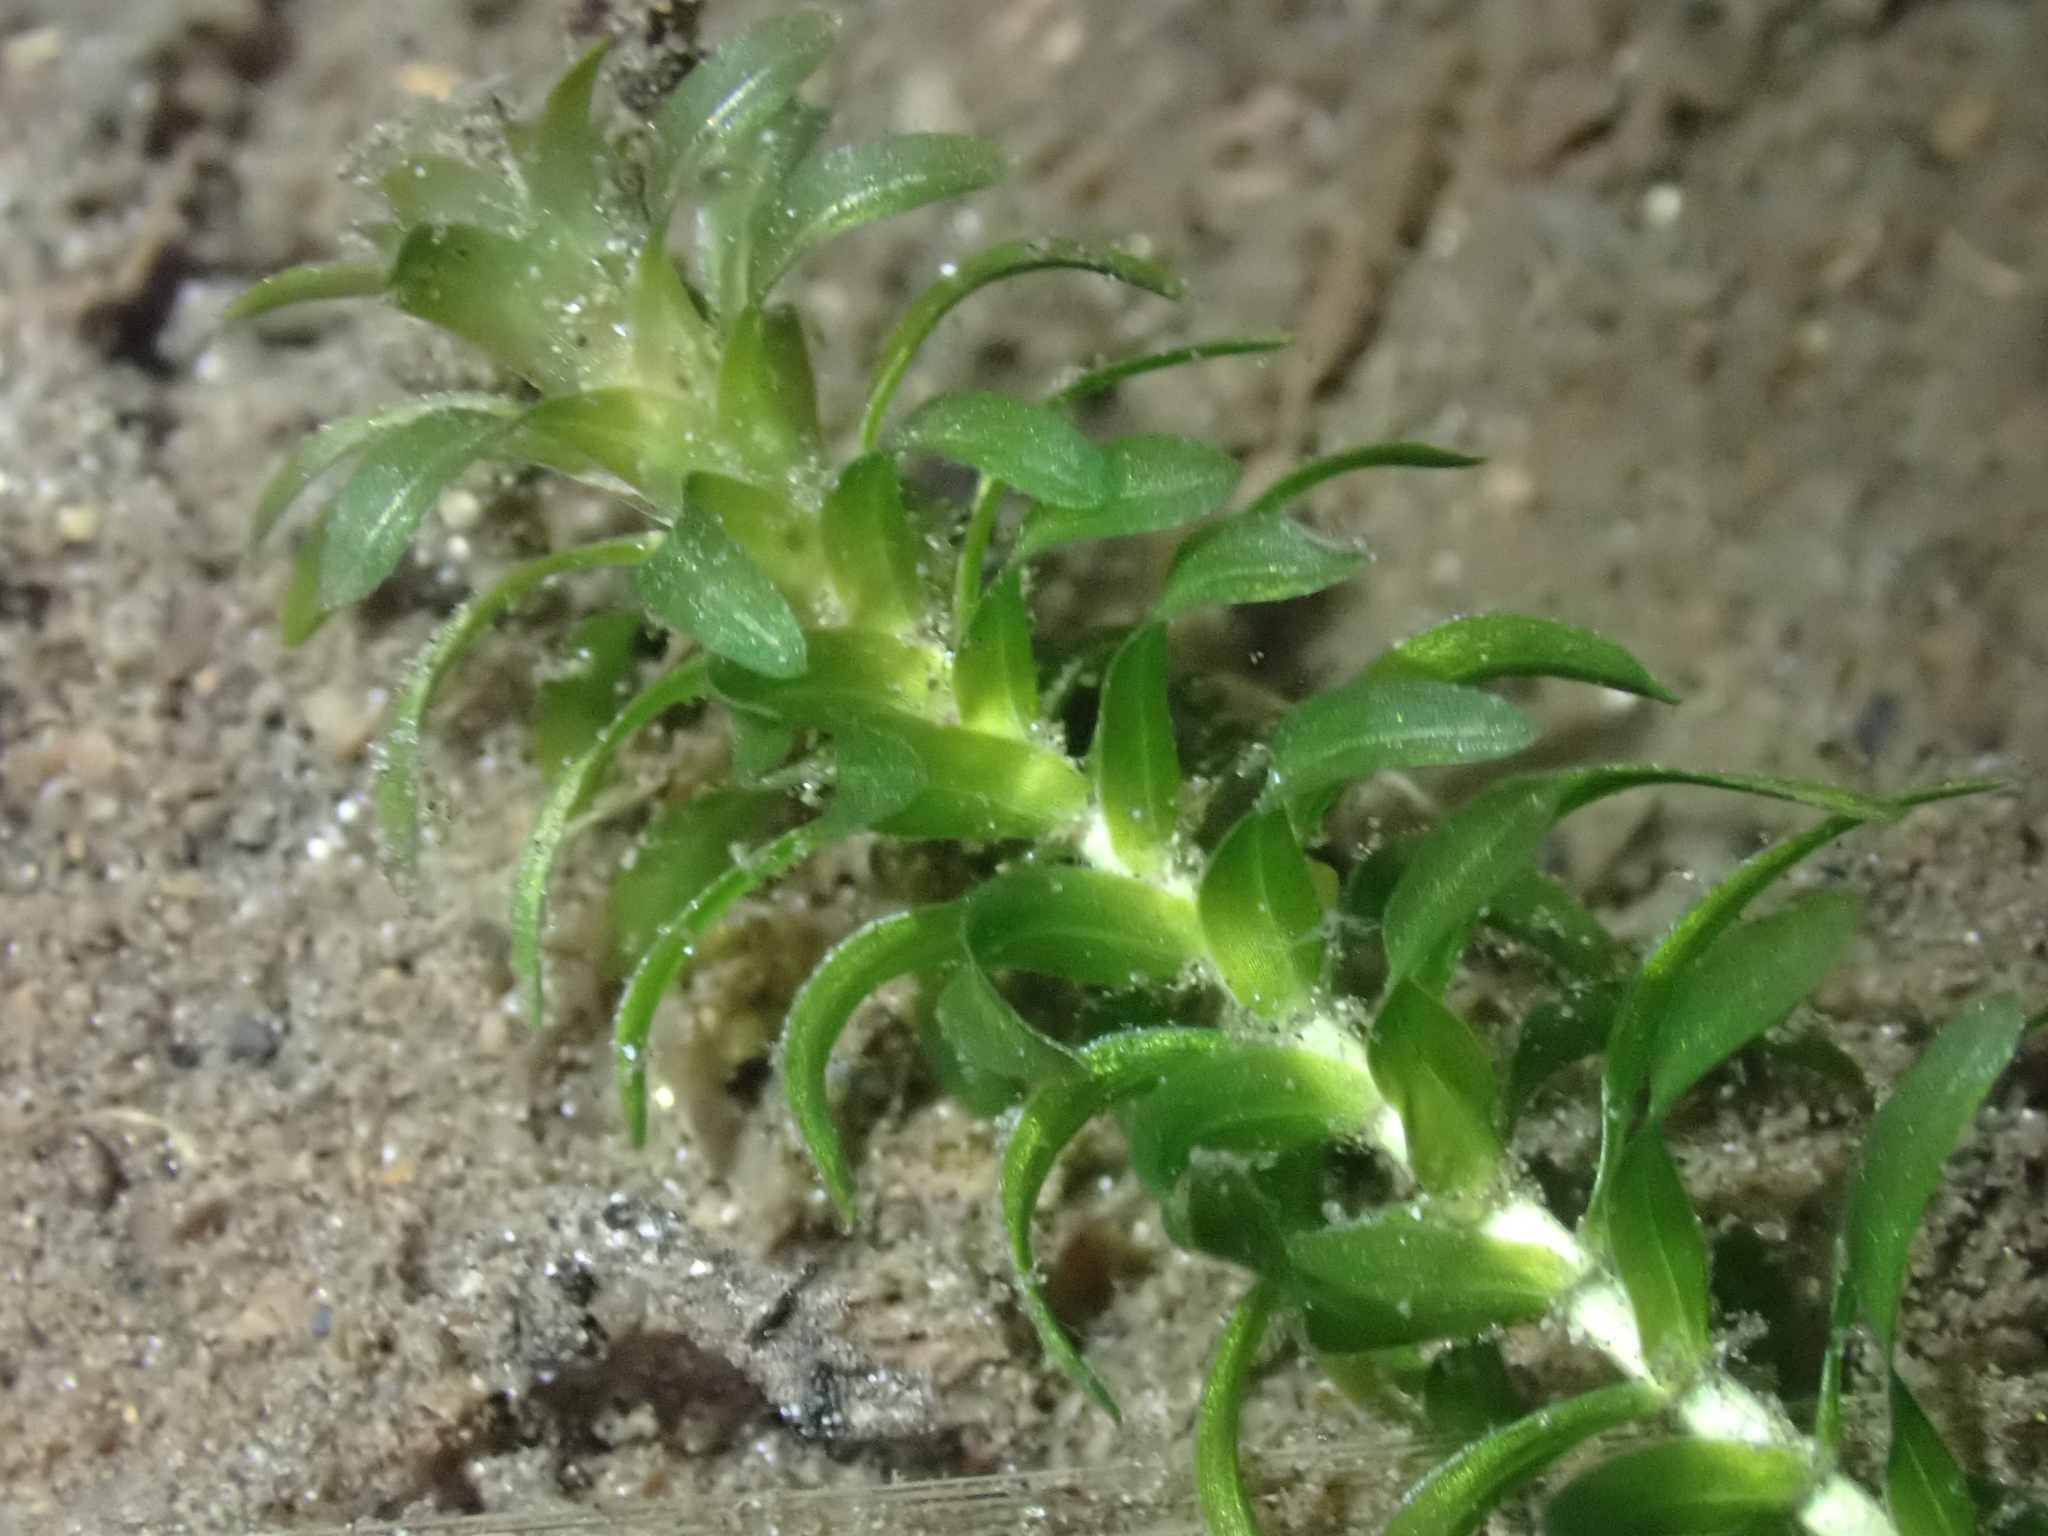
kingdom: Plantae
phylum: Tracheophyta
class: Liliopsida
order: Alismatales
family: Hydrocharitaceae
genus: Elodea
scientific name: Elodea canadensis
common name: Canadian waterweed
